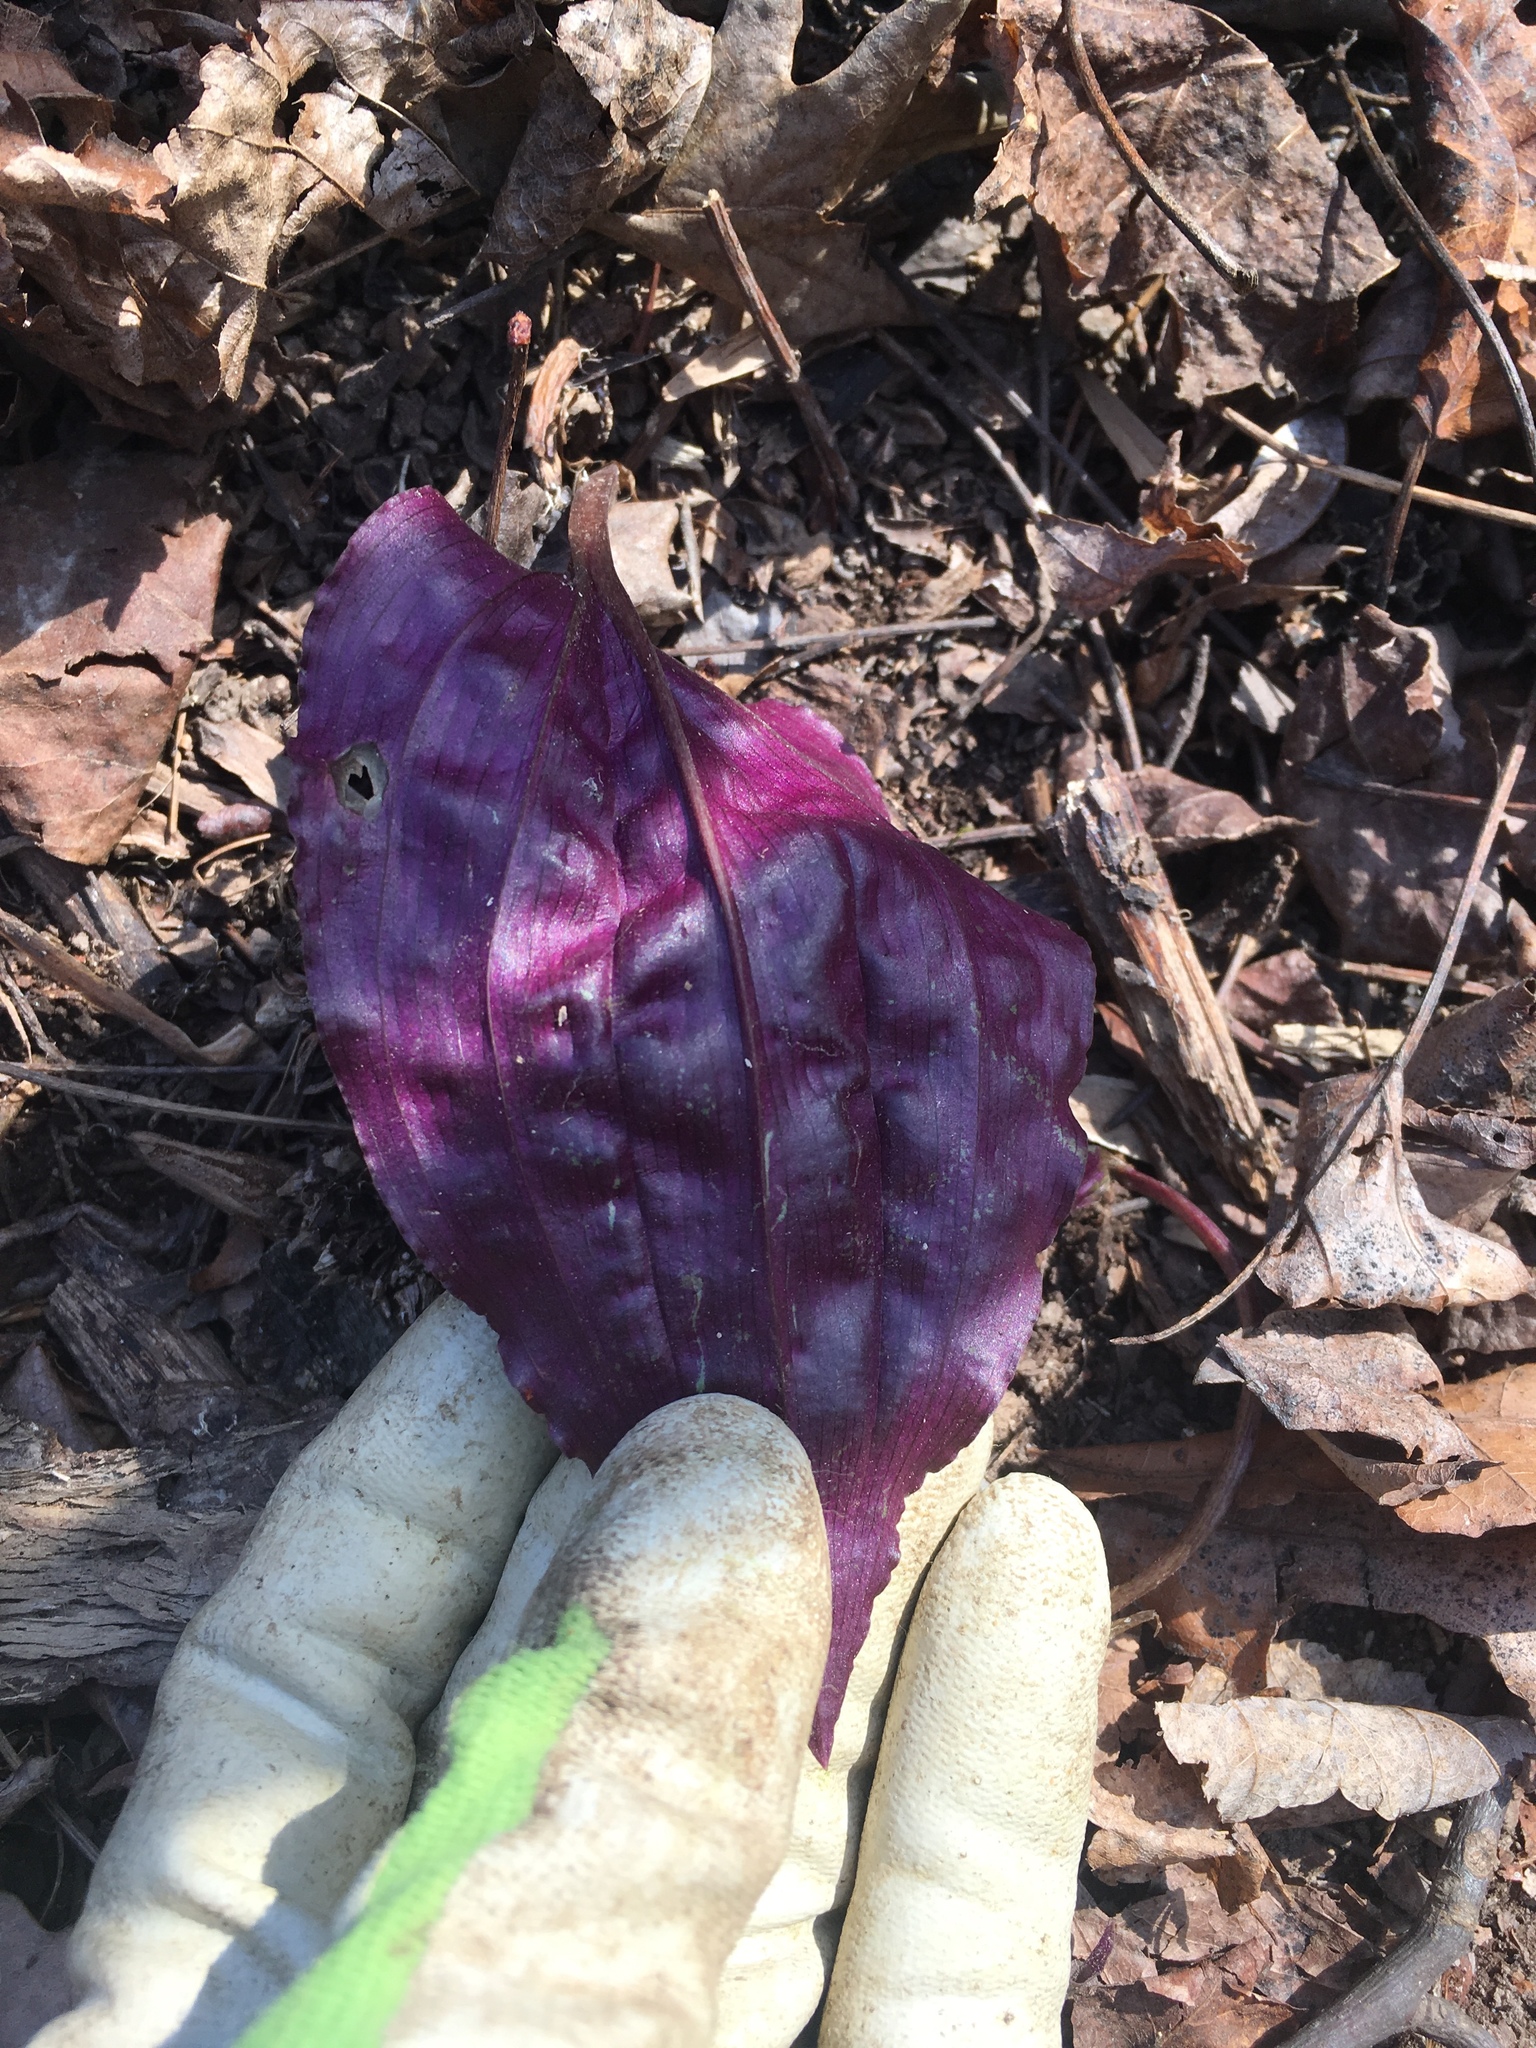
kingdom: Plantae
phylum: Tracheophyta
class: Liliopsida
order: Asparagales
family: Orchidaceae
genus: Tipularia
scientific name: Tipularia discolor
